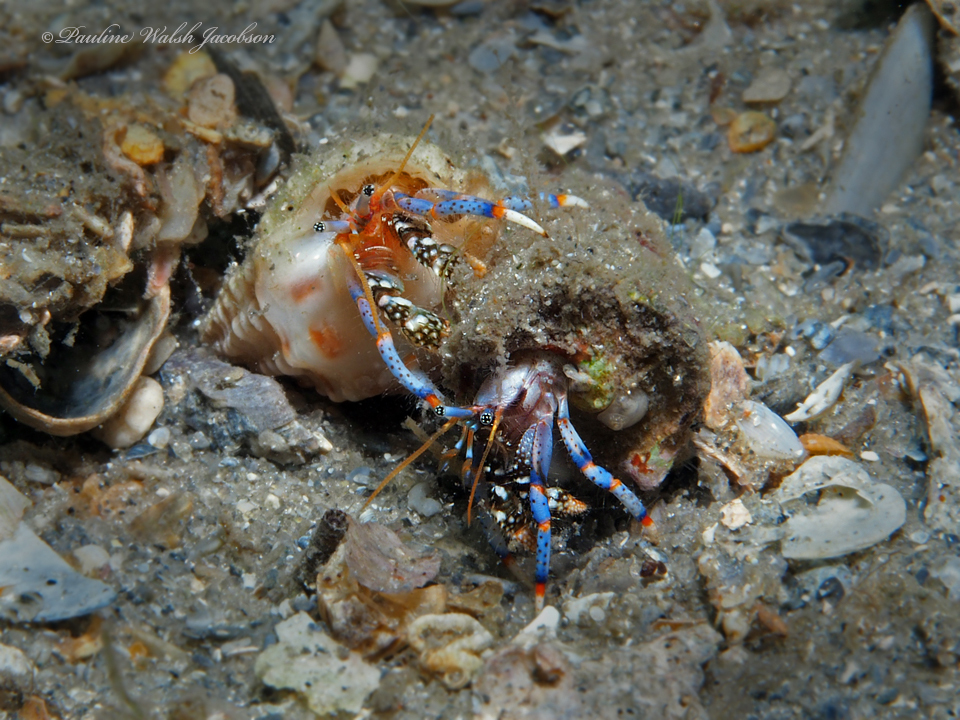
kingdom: Animalia
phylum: Arthropoda
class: Malacostraca
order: Decapoda
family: Diogenidae
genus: Clibanarius
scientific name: Clibanarius tricolor
